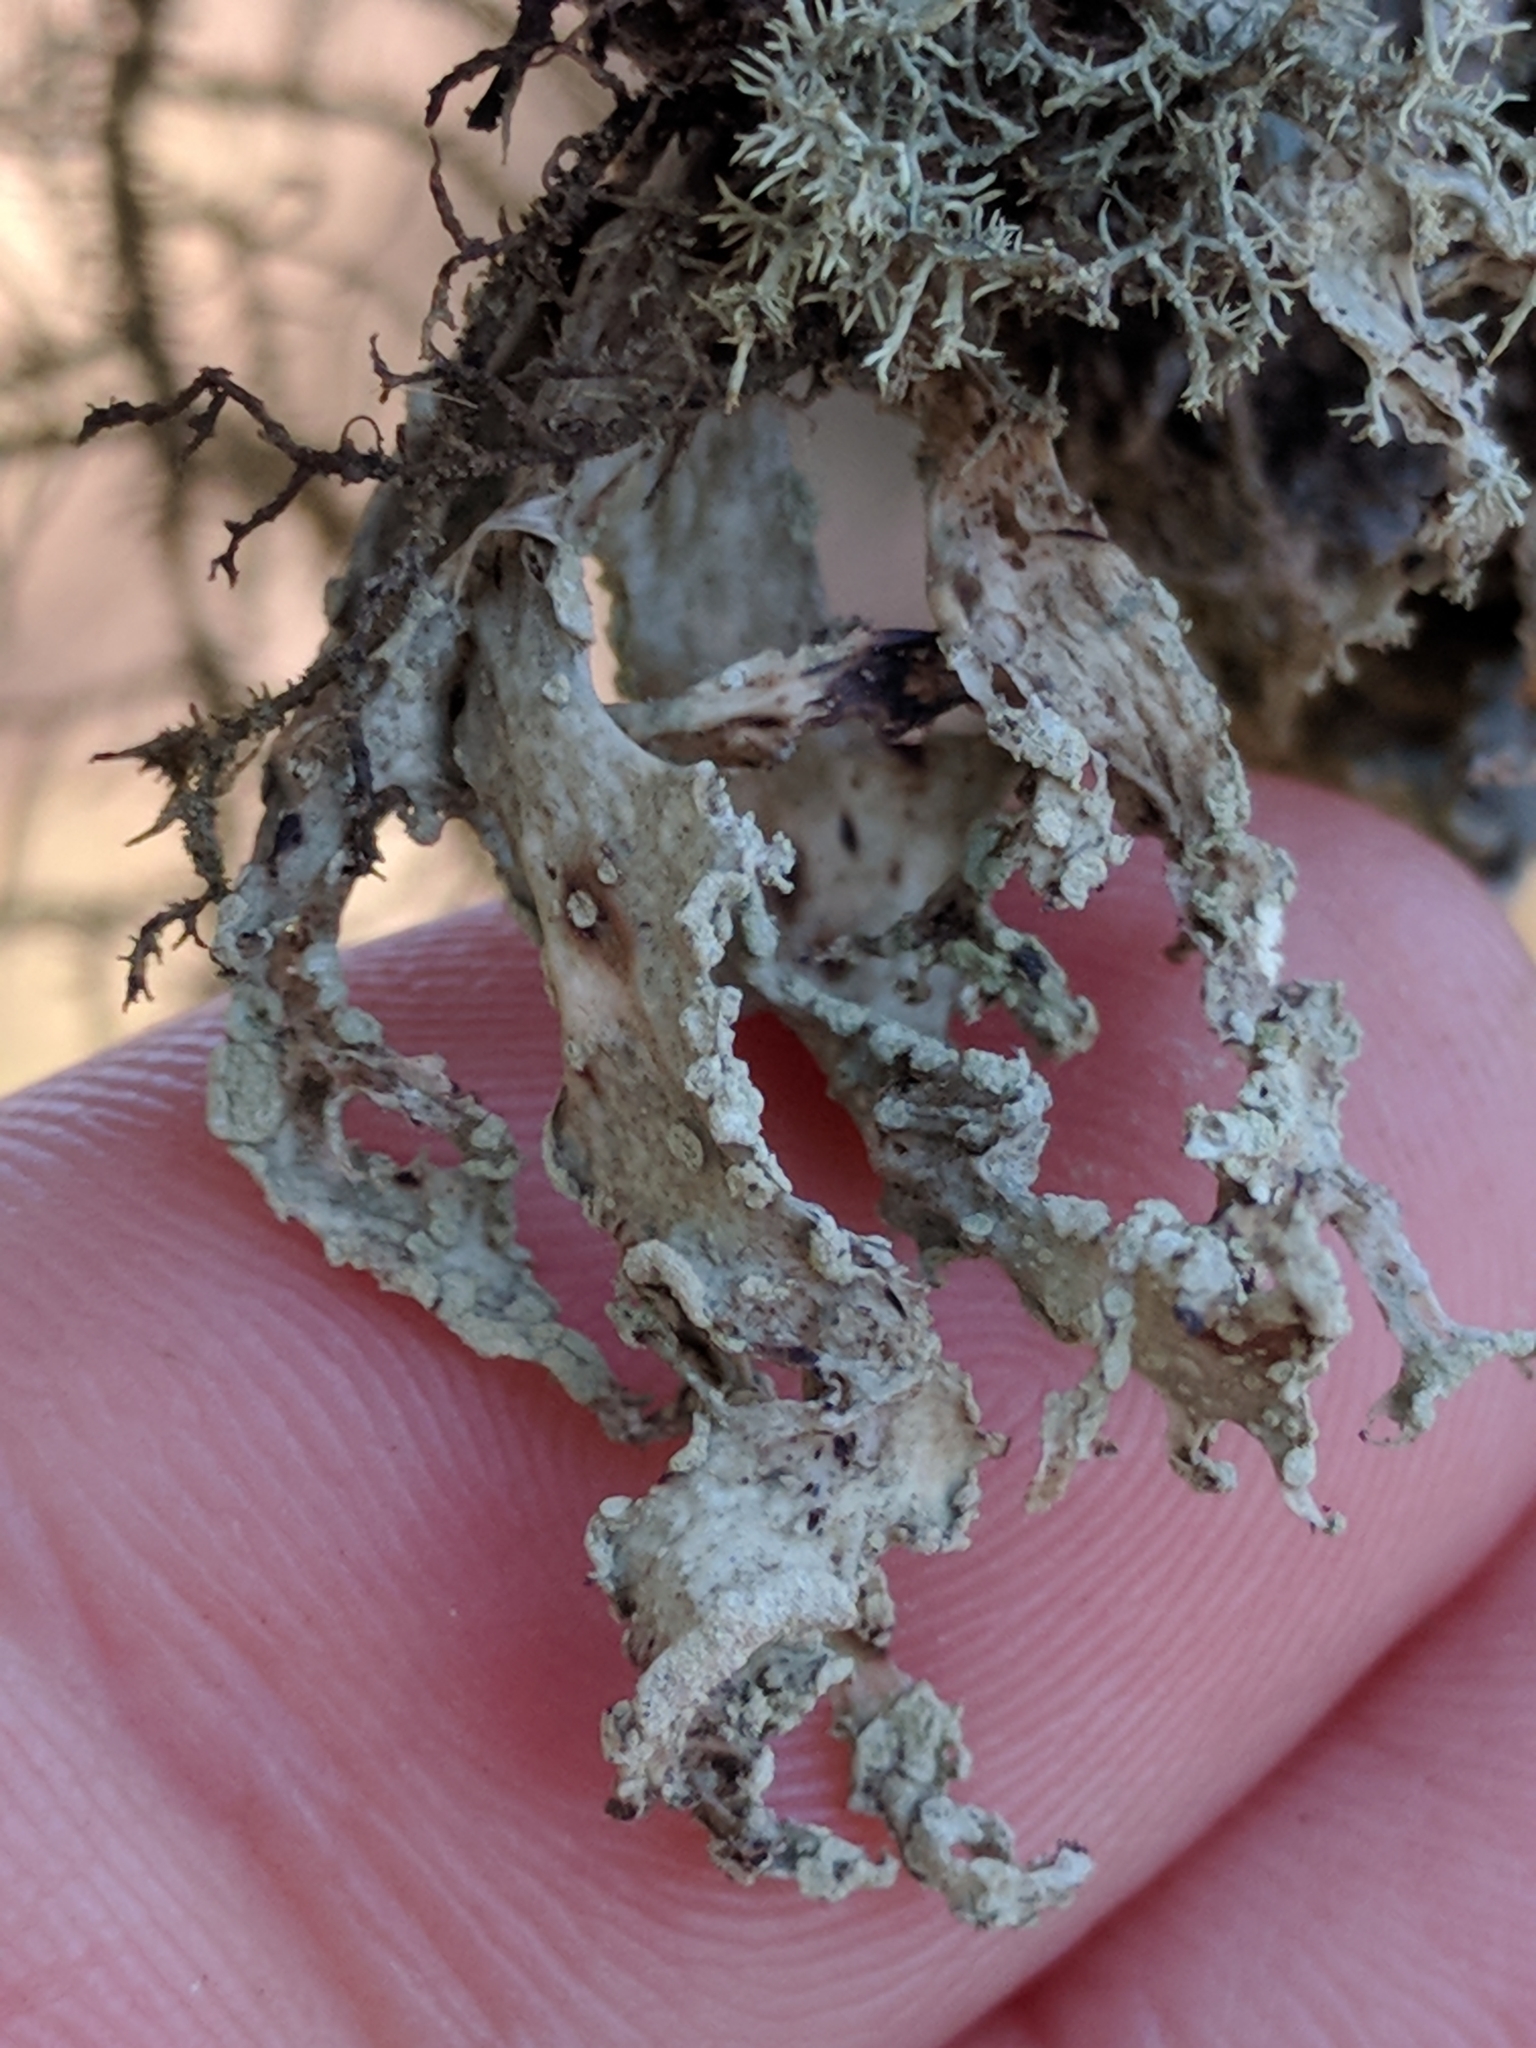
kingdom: Fungi
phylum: Ascomycota
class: Lecanoromycetes
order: Lecanorales
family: Ramalinaceae
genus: Ramalina
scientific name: Ramalina subleptocarpha
